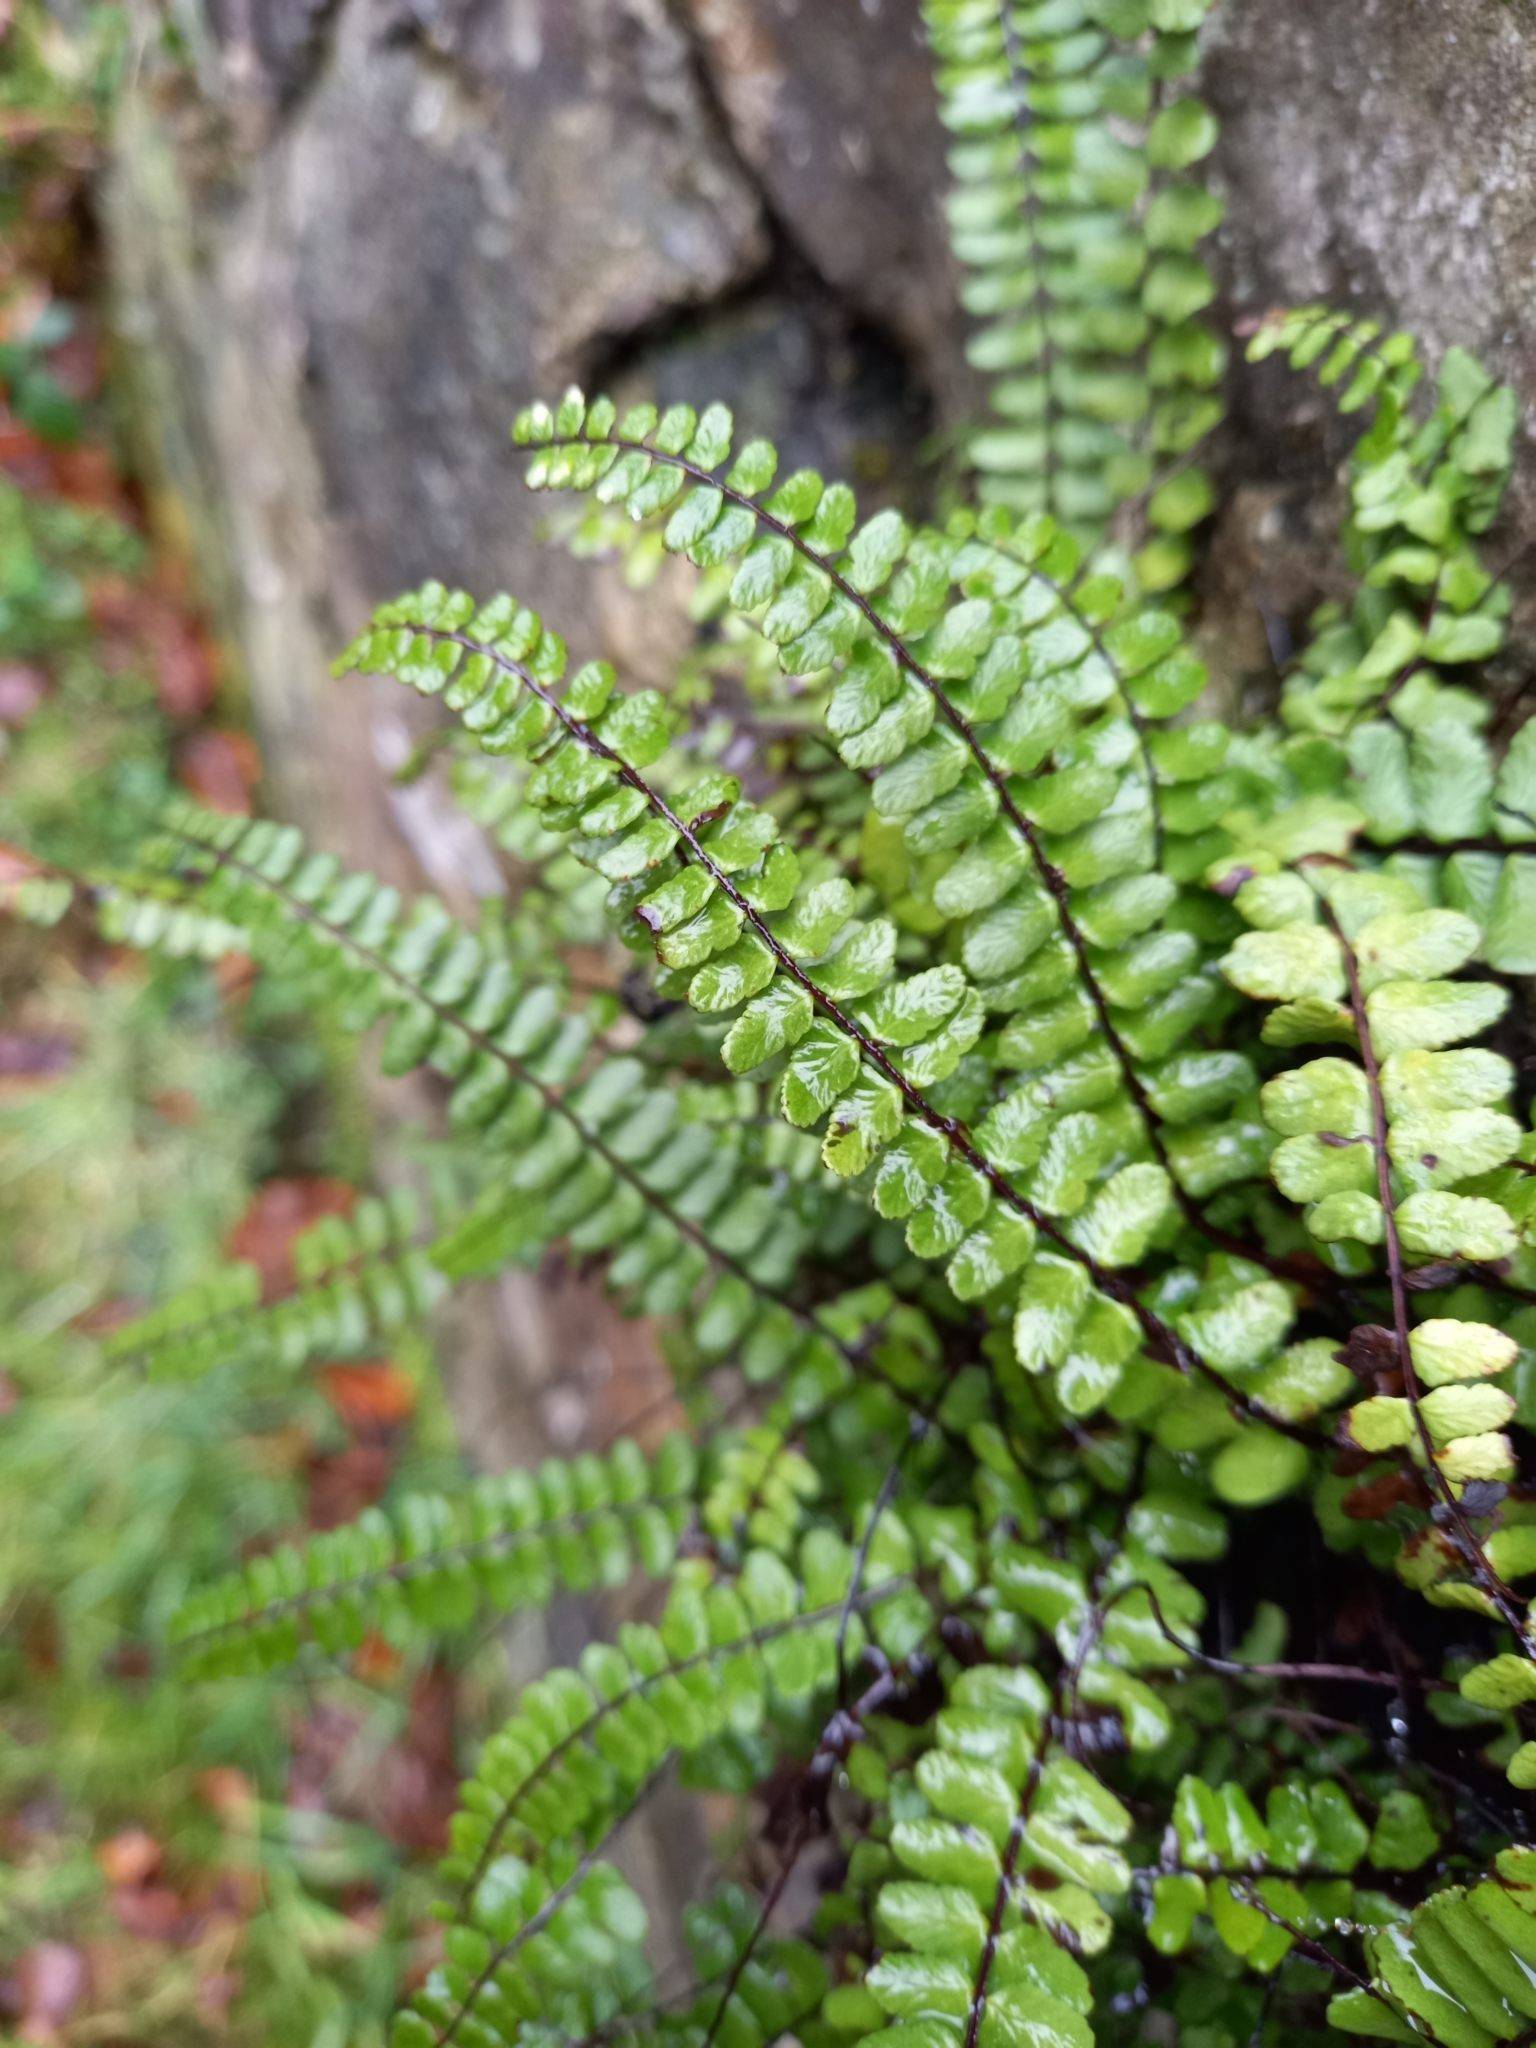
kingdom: Plantae
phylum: Tracheophyta
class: Polypodiopsida
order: Polypodiales
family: Aspleniaceae
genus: Asplenium
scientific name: Asplenium trichomanes
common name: Maidenhair spleenwort
